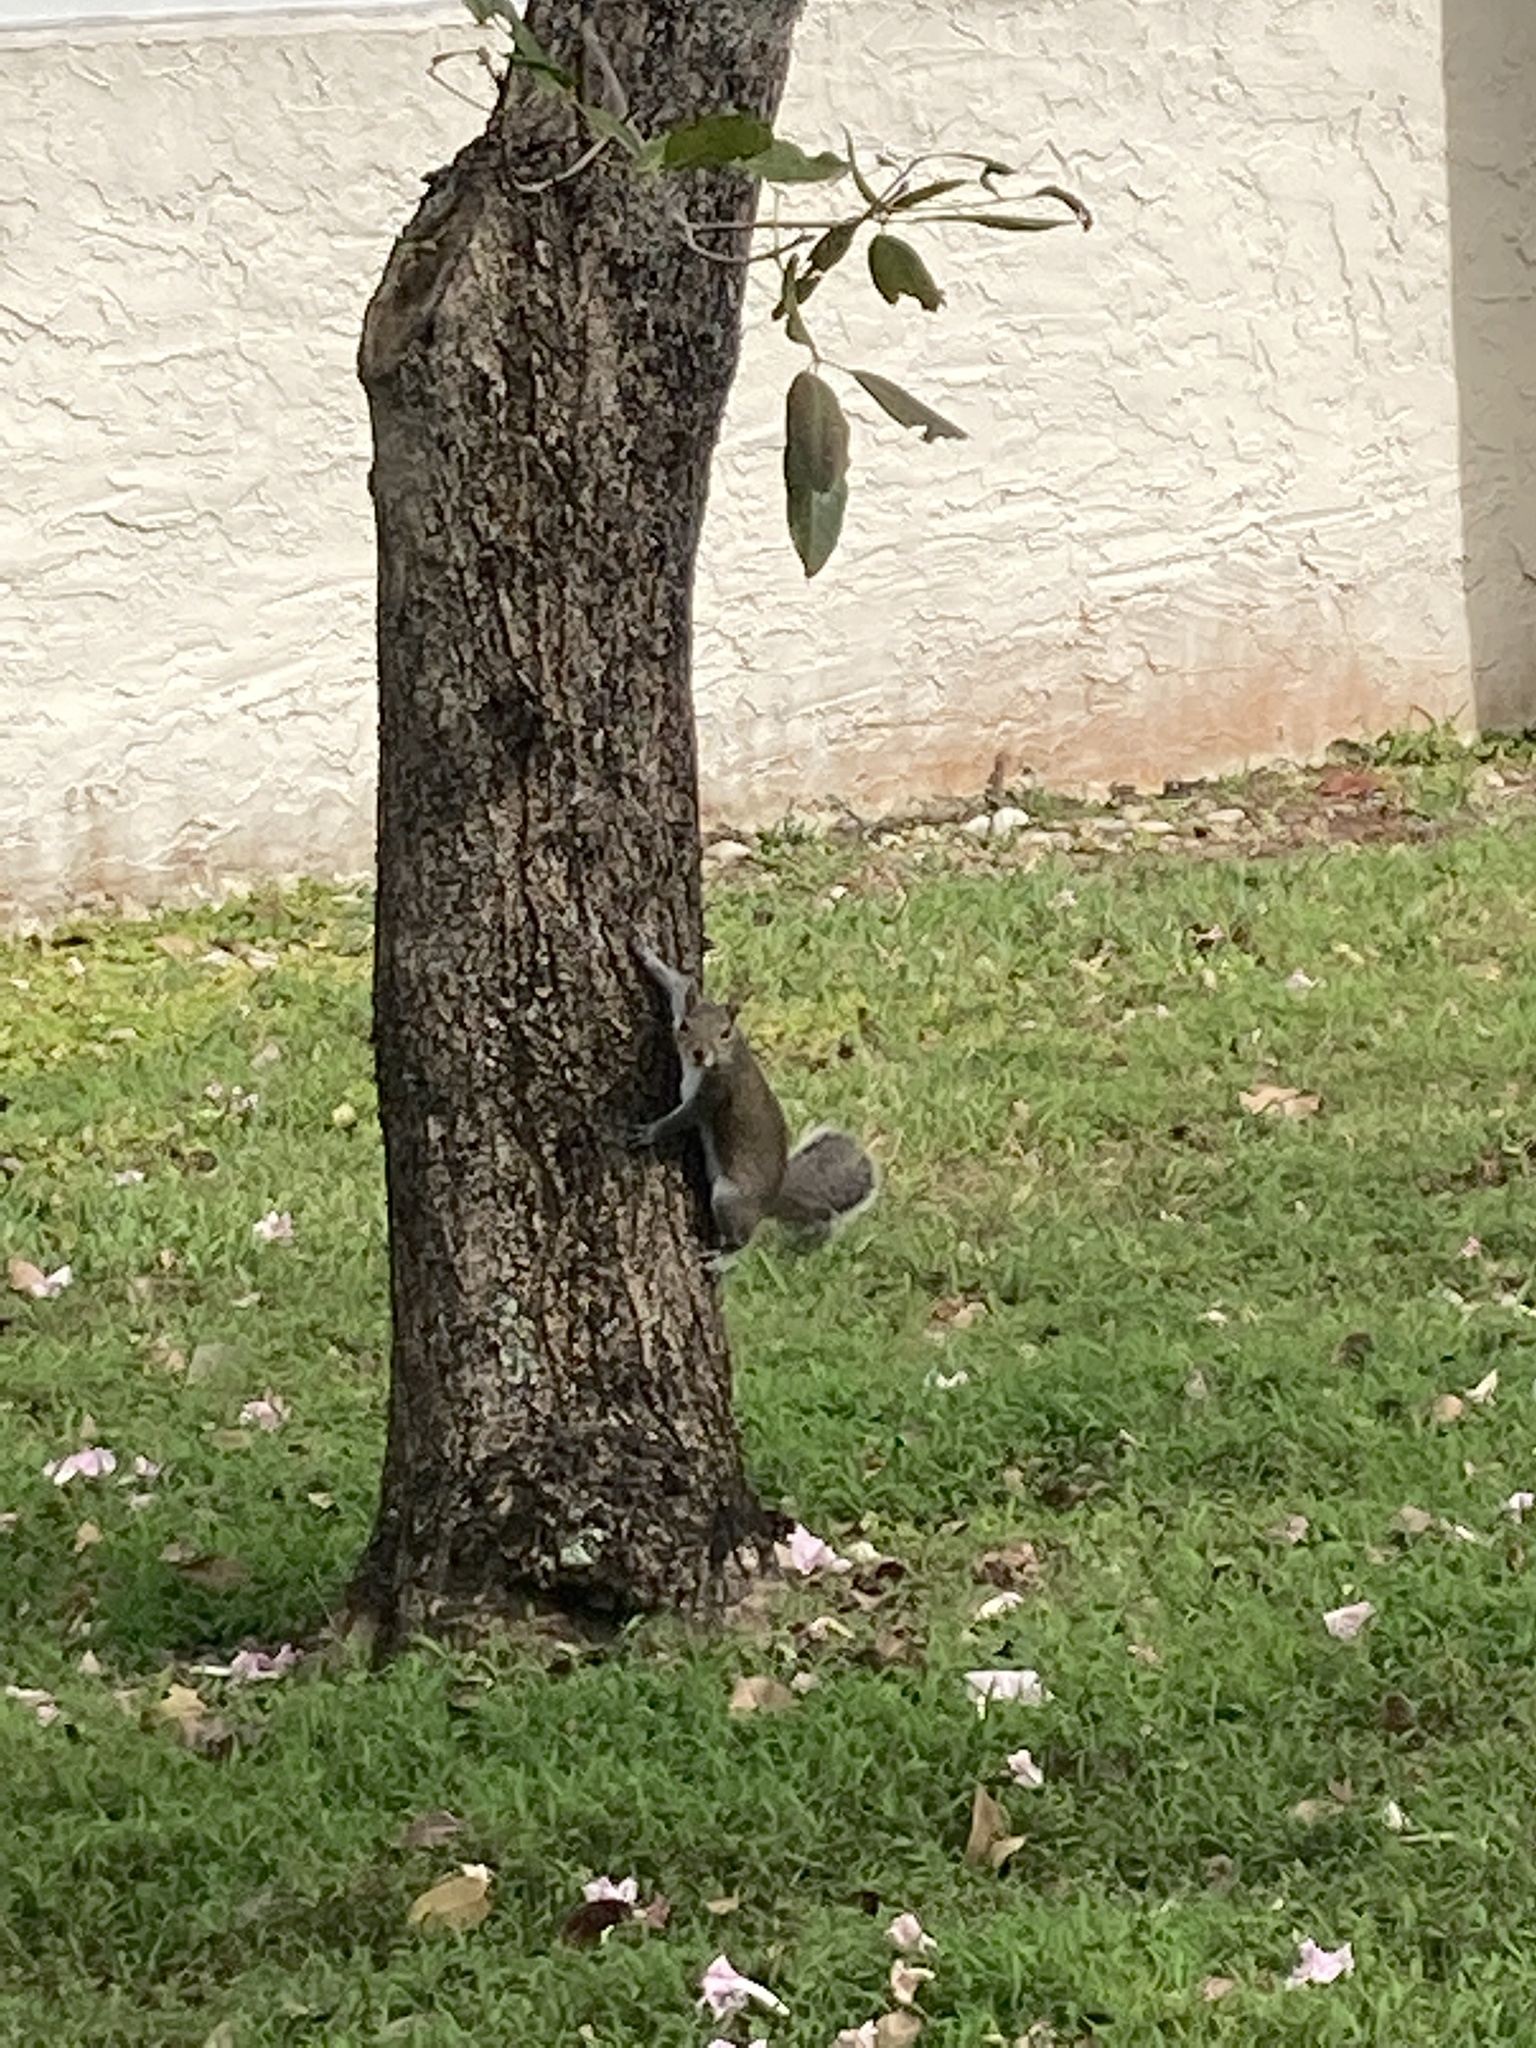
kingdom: Animalia
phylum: Chordata
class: Mammalia
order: Rodentia
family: Sciuridae
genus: Sciurus
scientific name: Sciurus carolinensis
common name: Eastern gray squirrel
